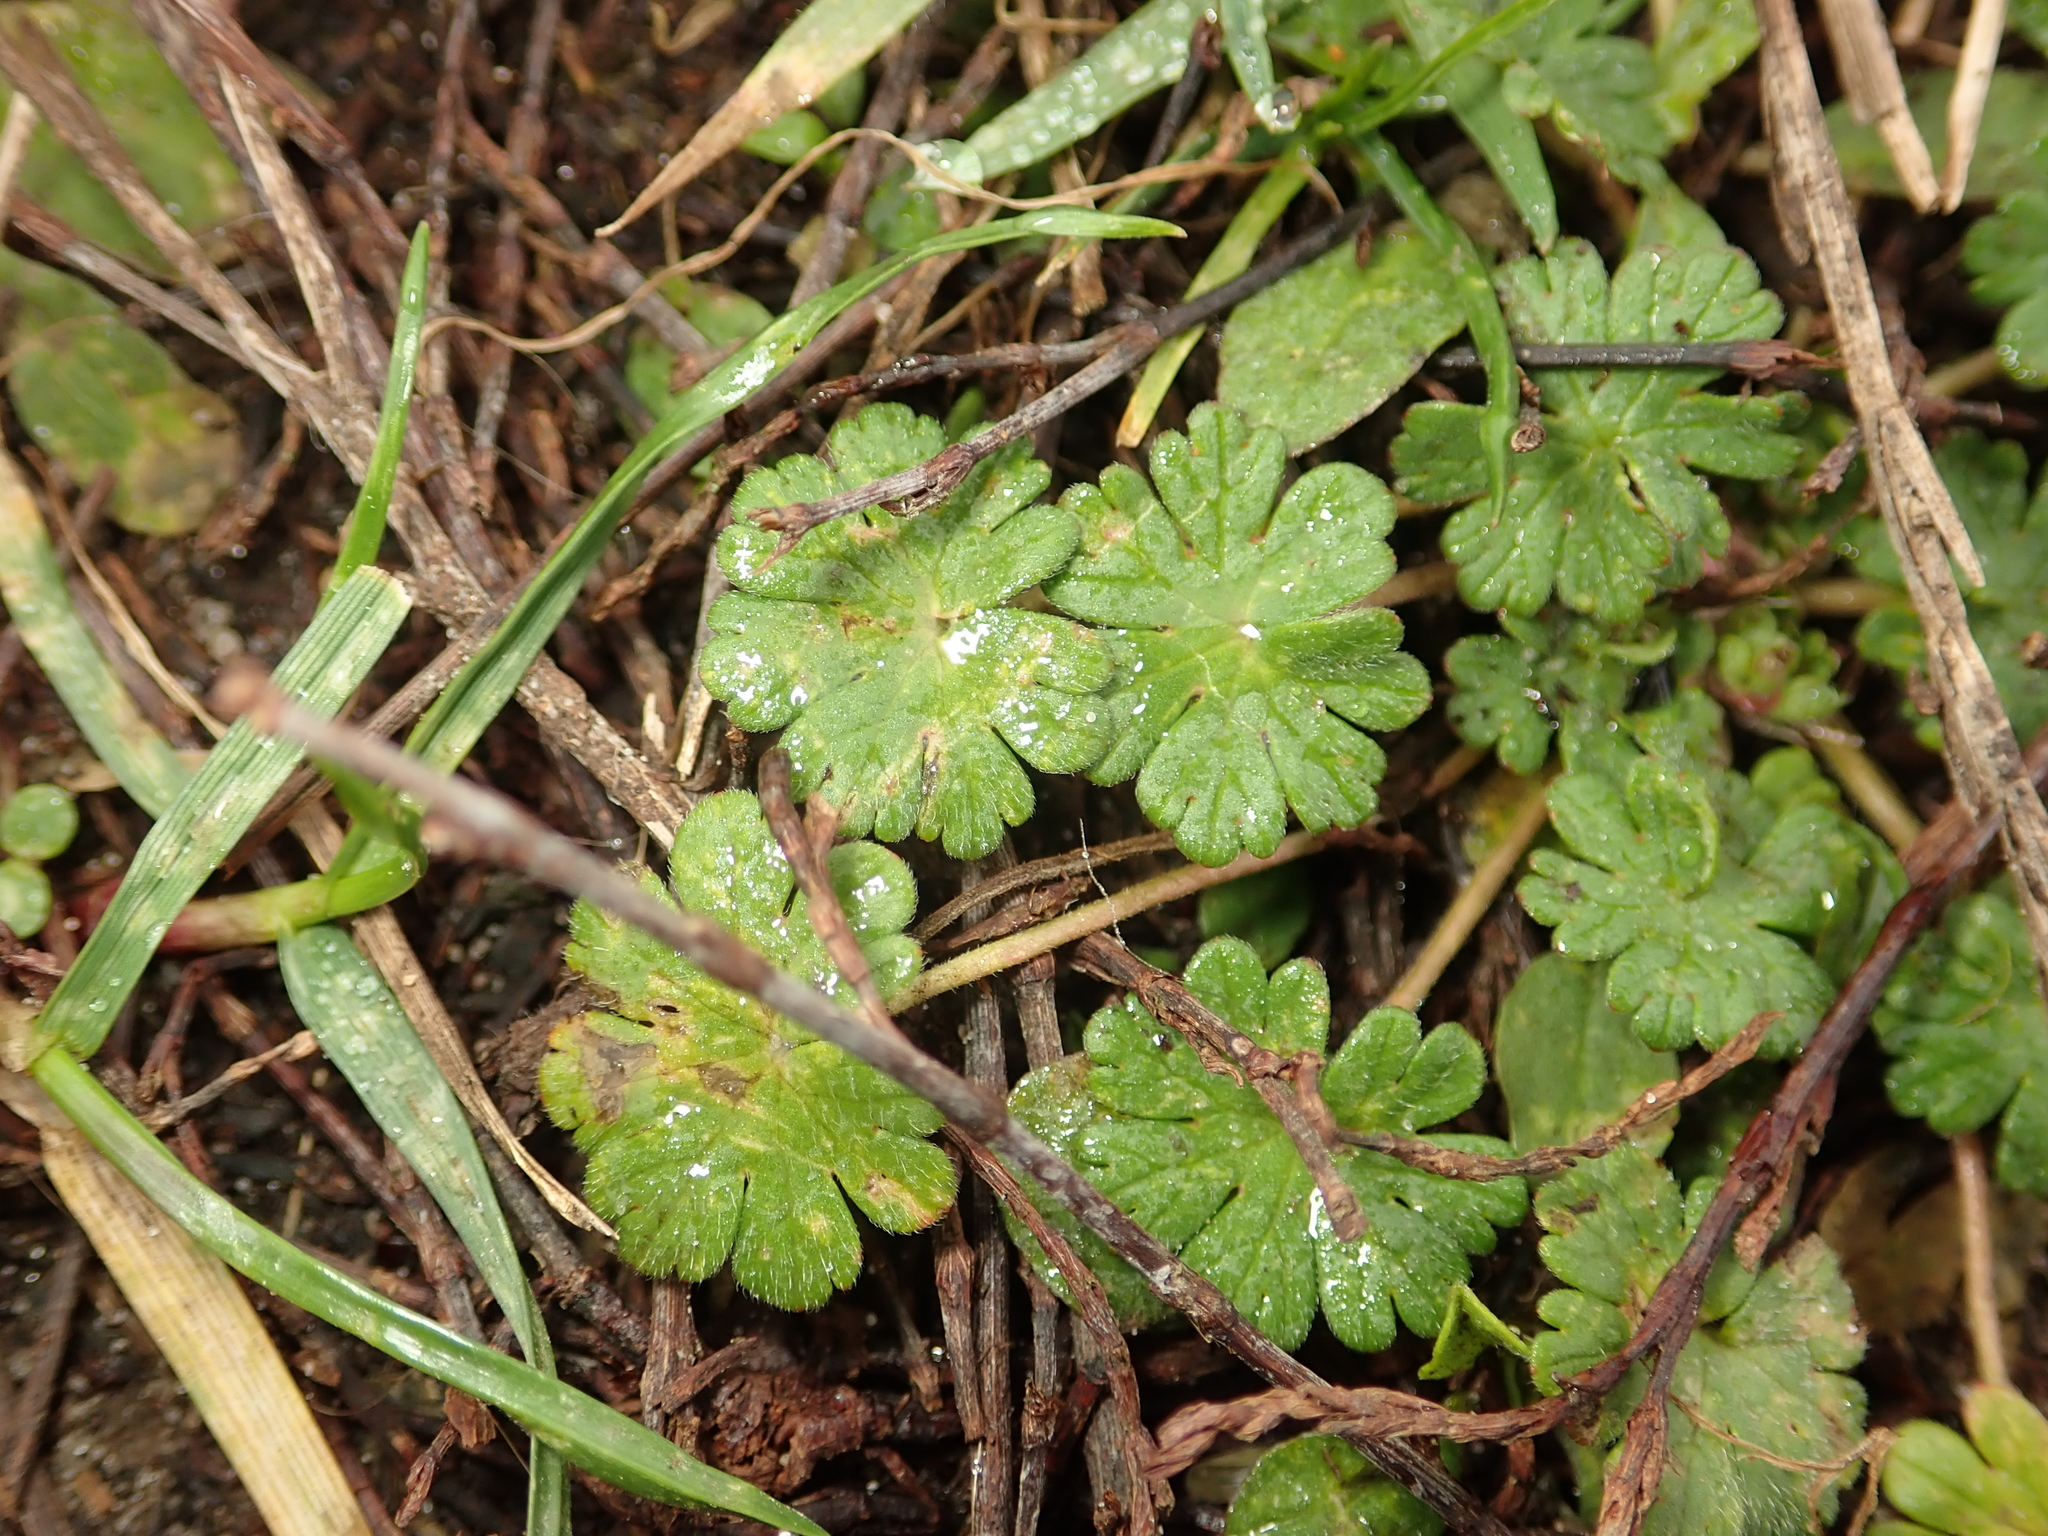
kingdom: Plantae
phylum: Tracheophyta
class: Magnoliopsida
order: Geraniales
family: Geraniaceae
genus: Geranium
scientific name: Geranium molle
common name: Dove's-foot crane's-bill
